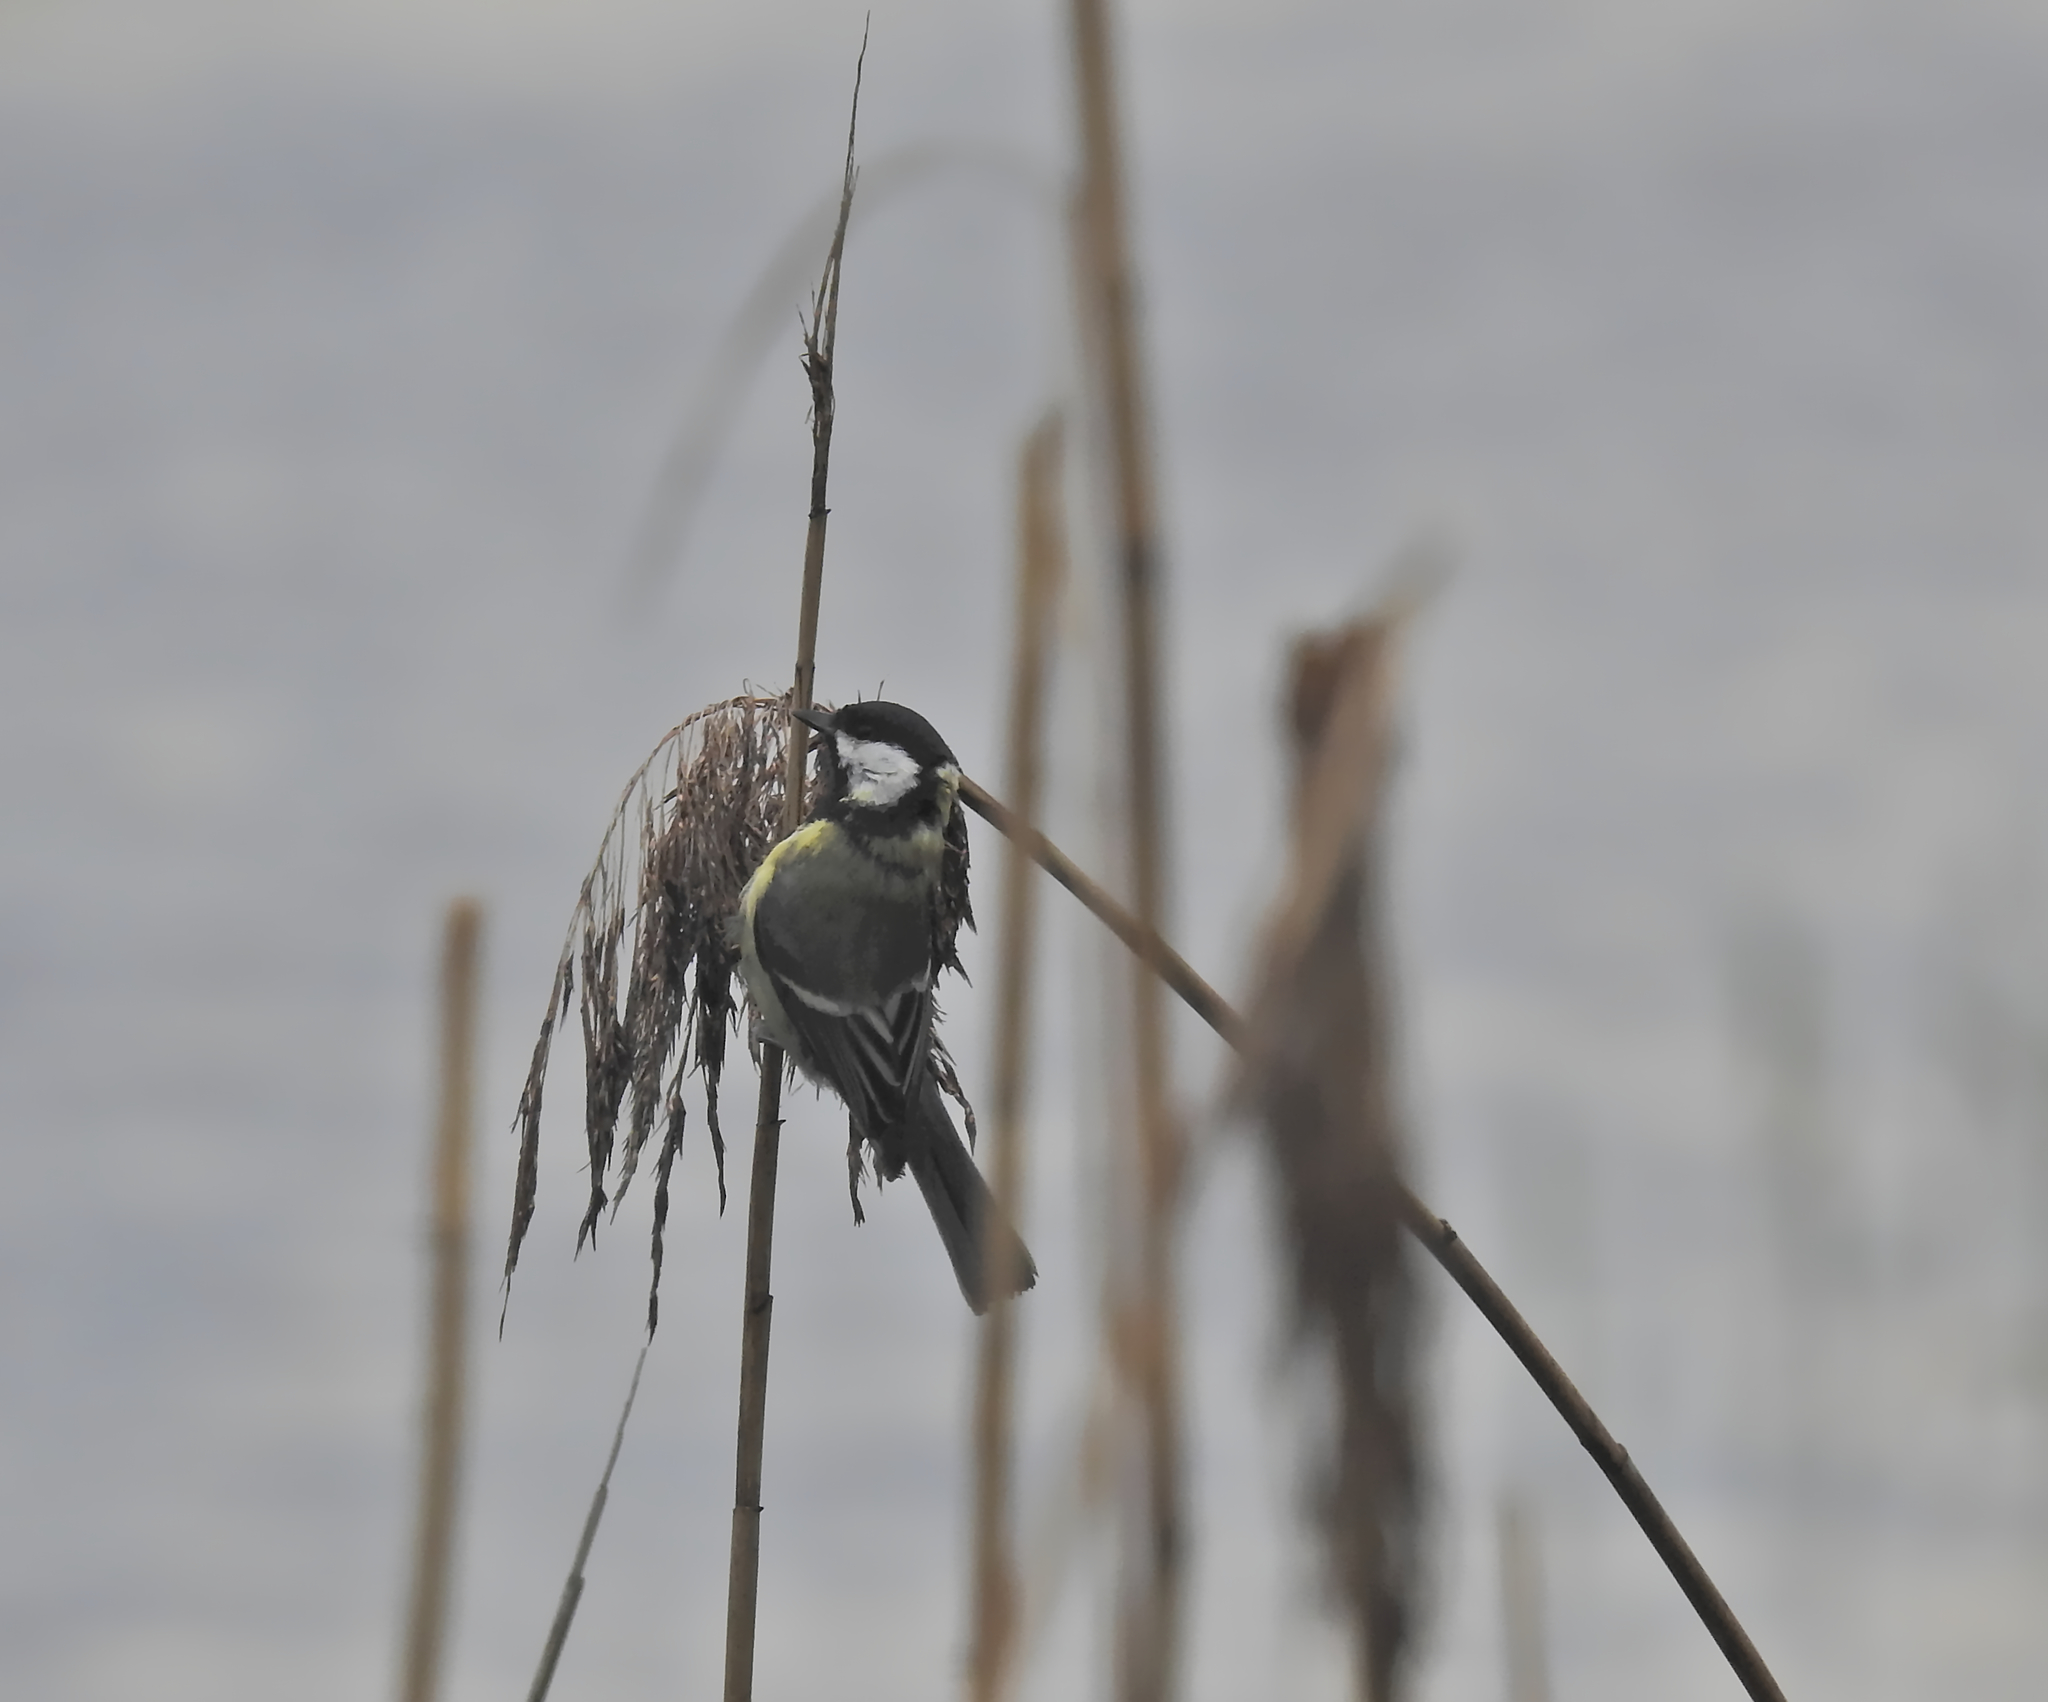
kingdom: Animalia
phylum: Chordata
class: Aves
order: Passeriformes
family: Paridae
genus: Parus
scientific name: Parus major
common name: Great tit
